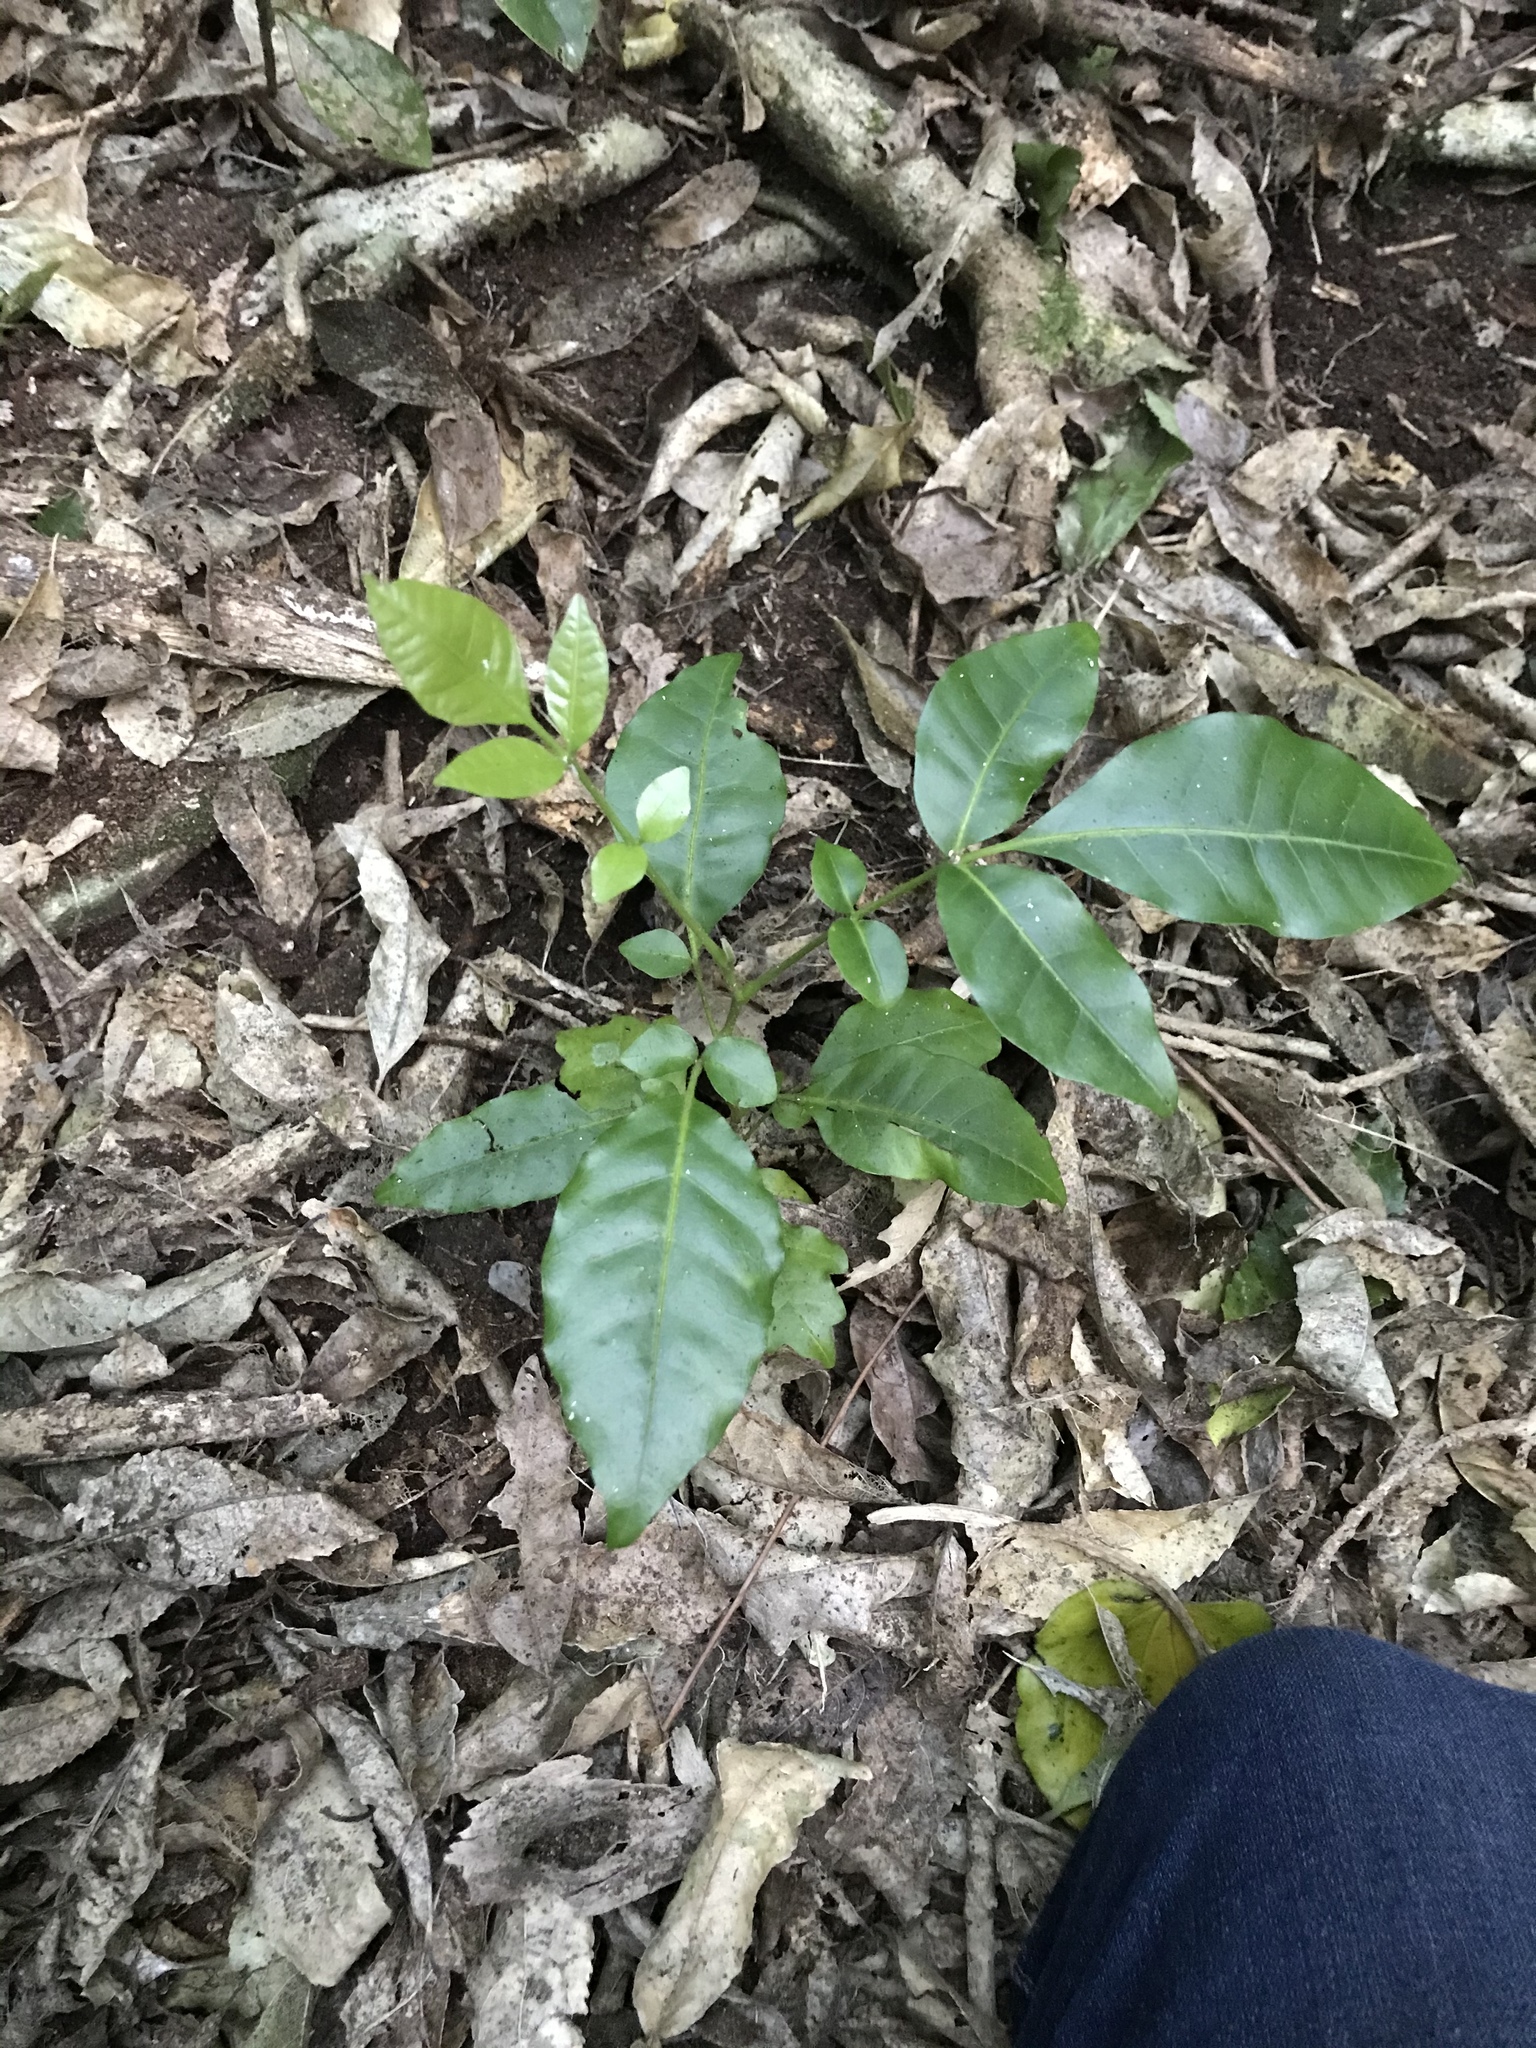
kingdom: Plantae
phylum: Tracheophyta
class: Magnoliopsida
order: Sapindales
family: Meliaceae
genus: Didymocheton
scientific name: Didymocheton spectabilis
